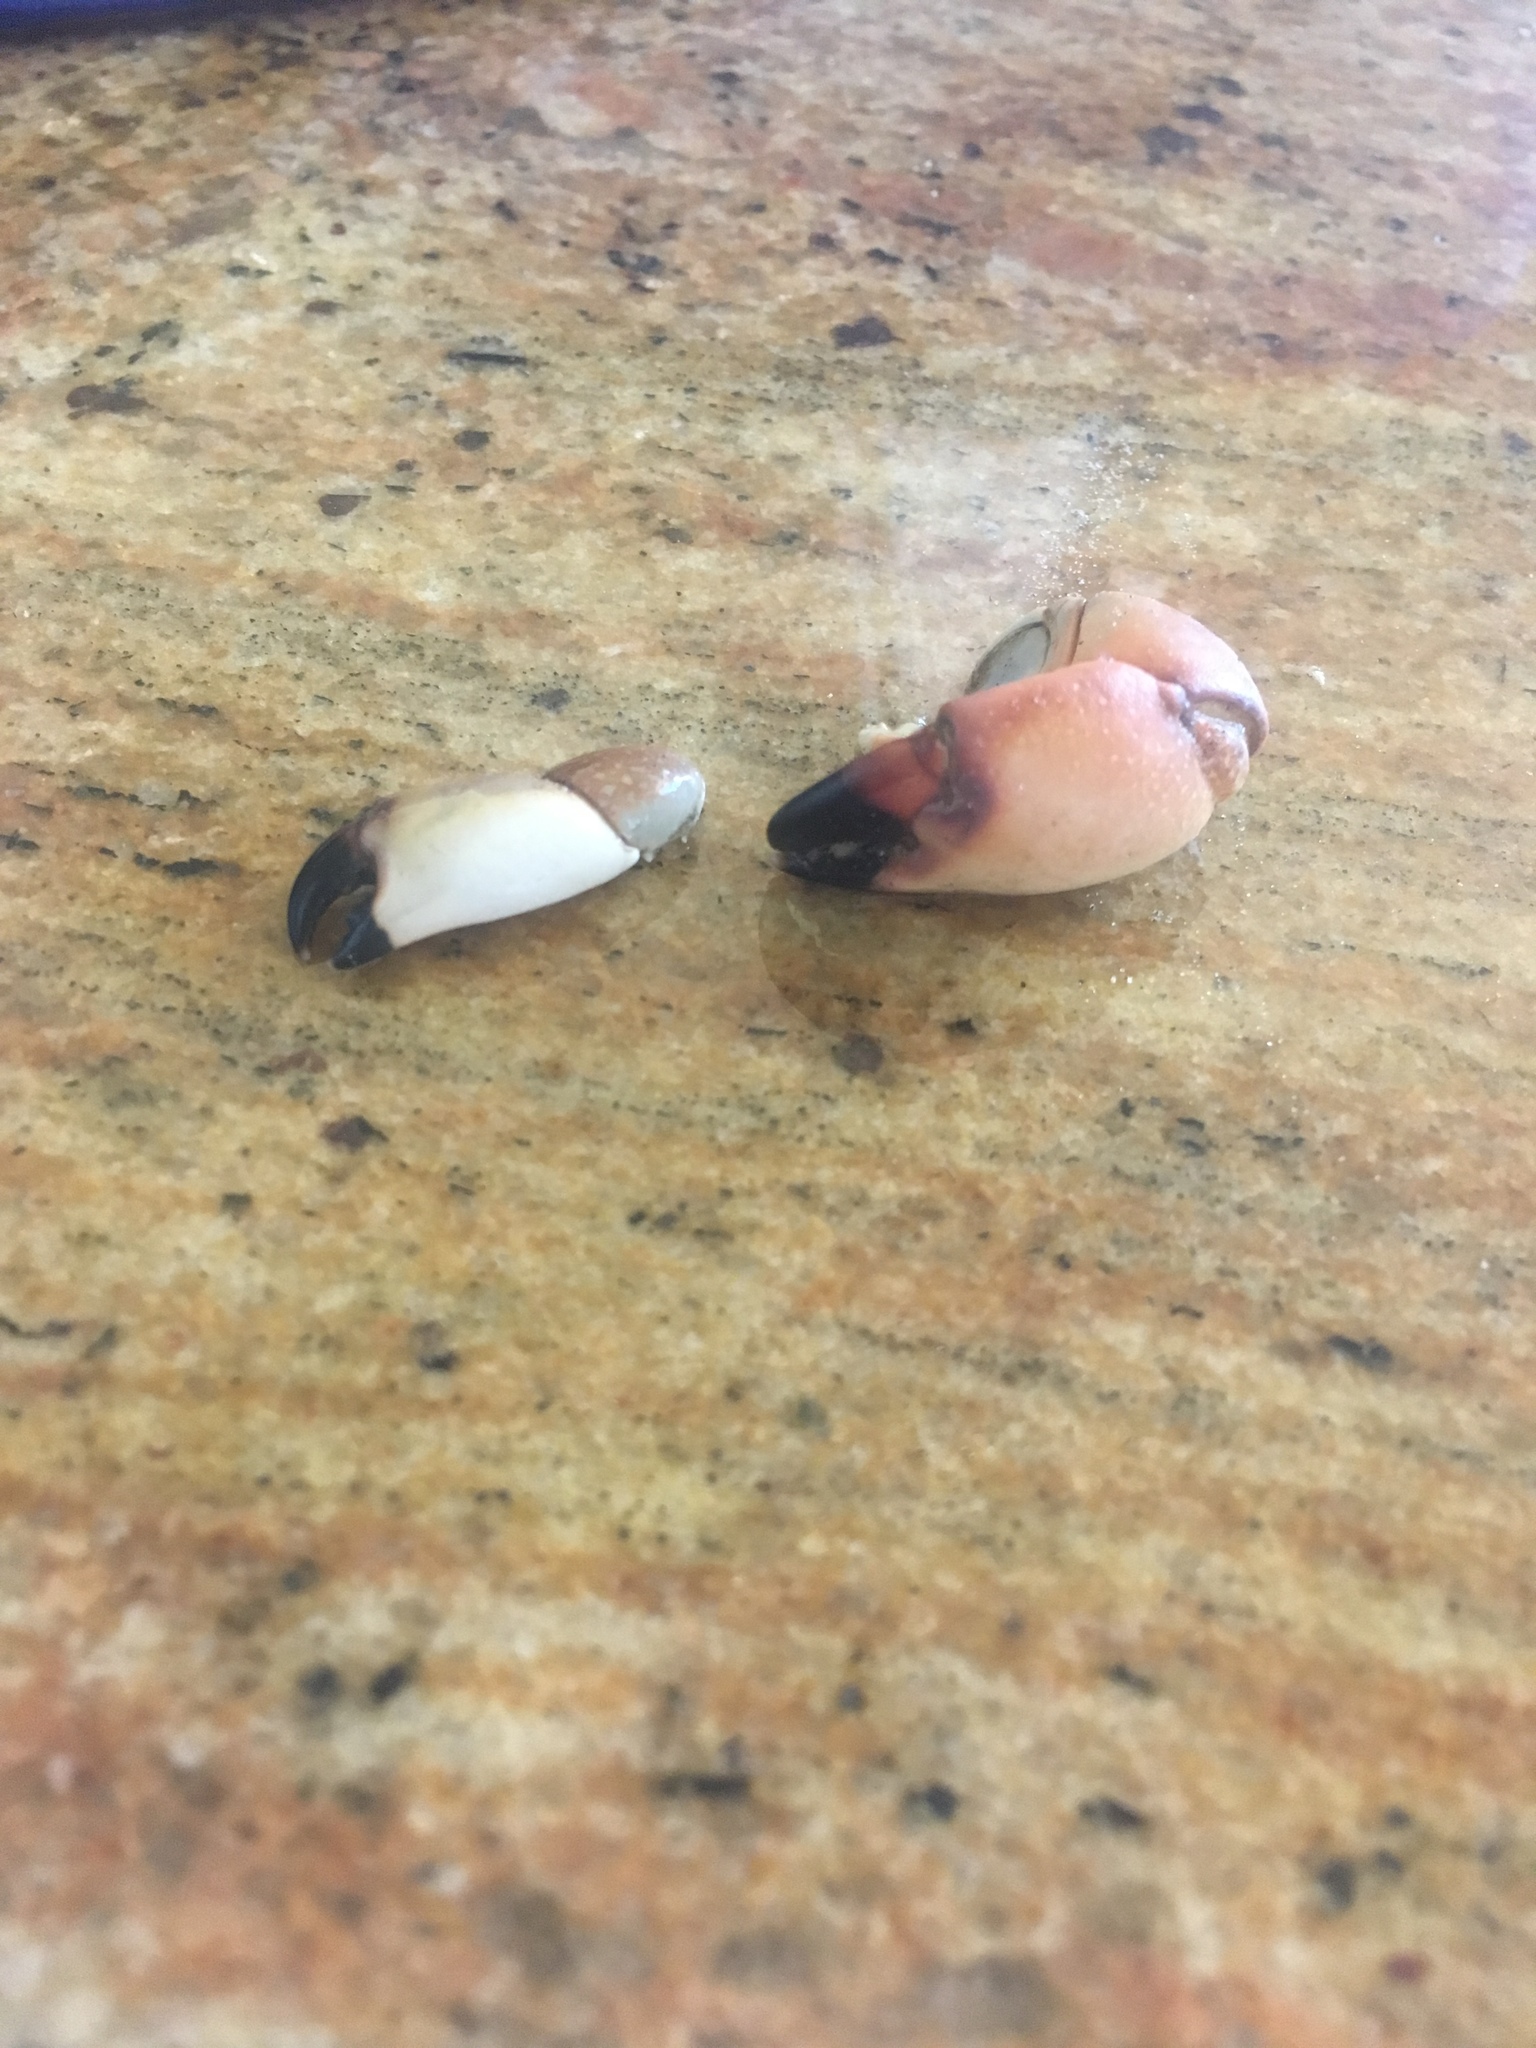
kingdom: Animalia
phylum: Arthropoda
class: Malacostraca
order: Decapoda
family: Menippidae
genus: Menippe
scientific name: Menippe adina
